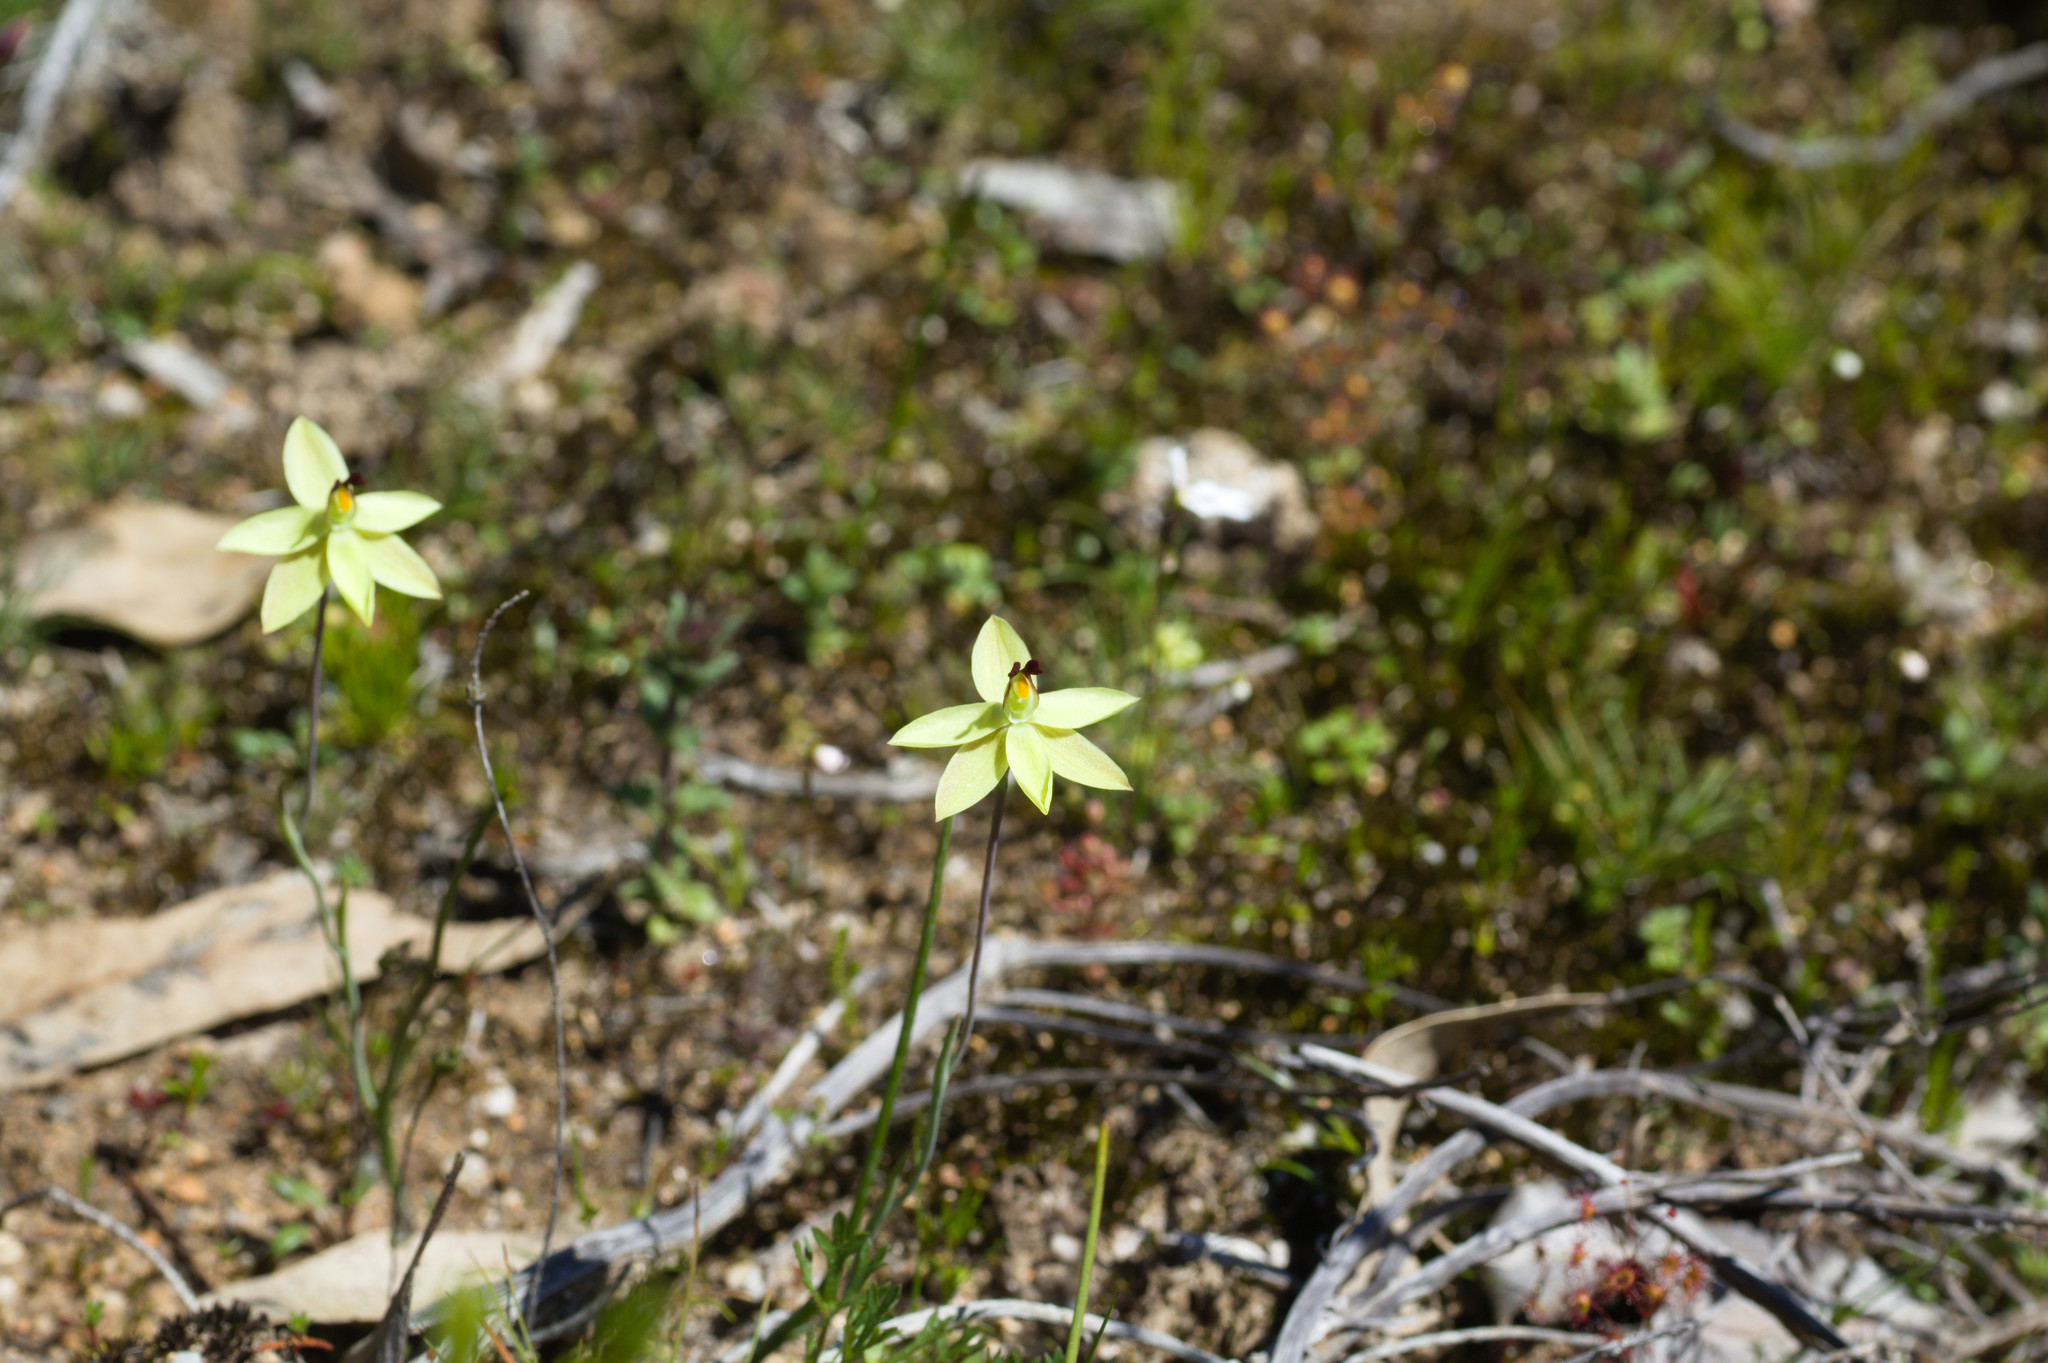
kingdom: Plantae
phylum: Tracheophyta
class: Liliopsida
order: Asparagales
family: Orchidaceae
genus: Thelymitra
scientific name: Thelymitra antennifera
